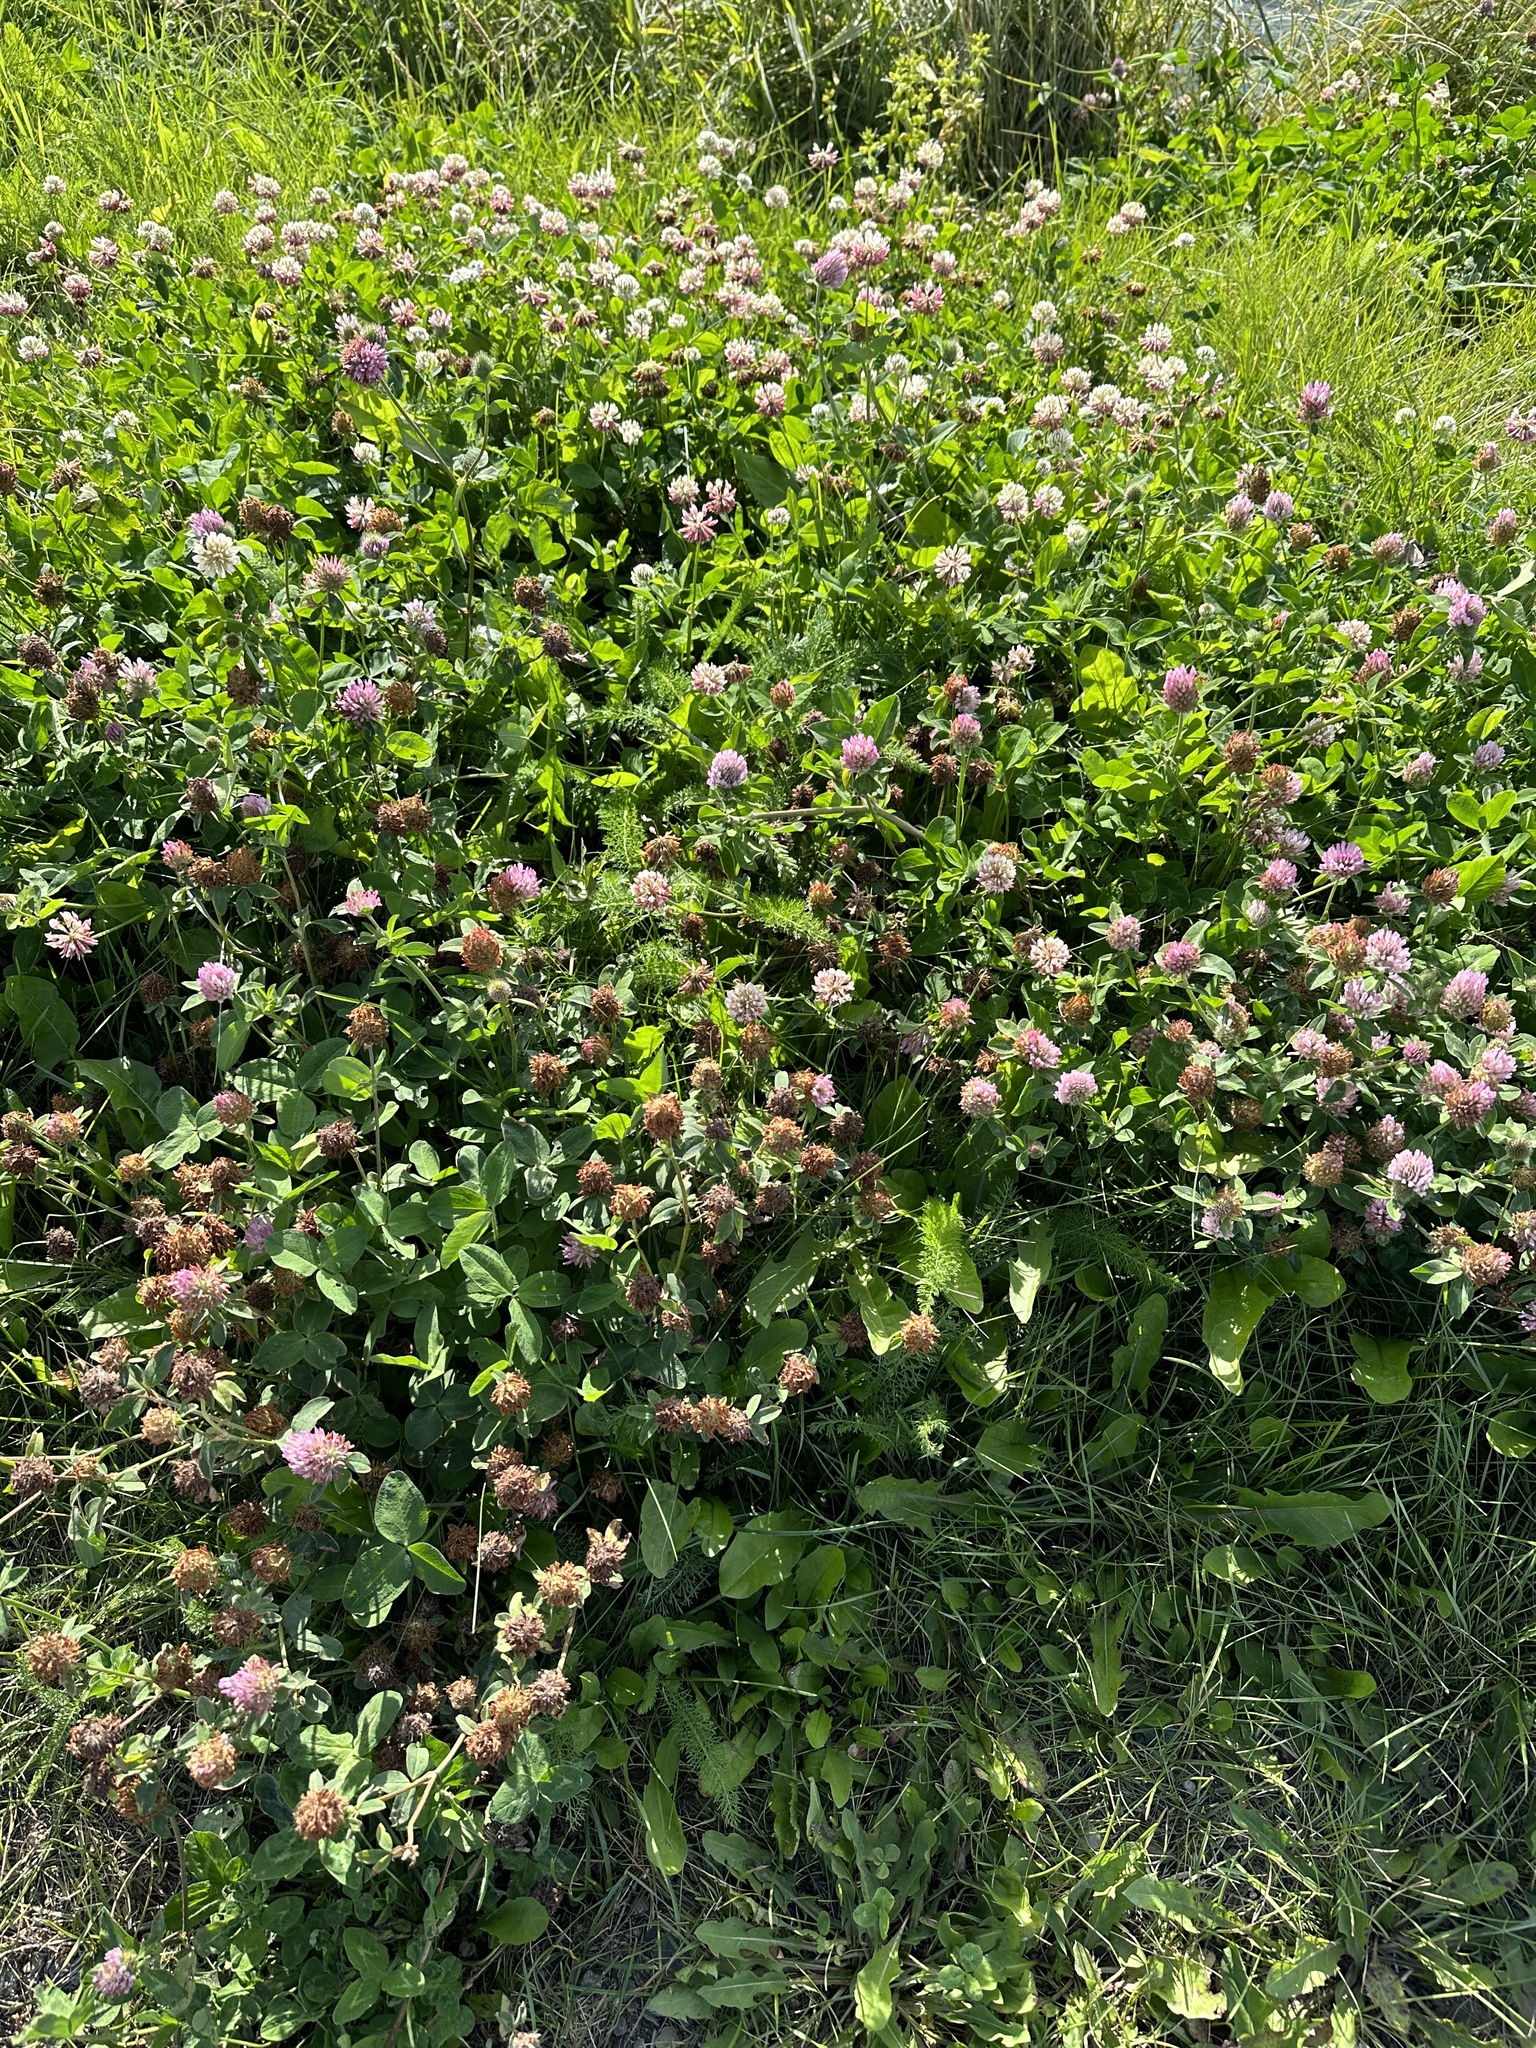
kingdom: Plantae
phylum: Tracheophyta
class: Magnoliopsida
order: Fabales
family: Fabaceae
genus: Trifolium
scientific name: Trifolium pratense
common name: Red clover
